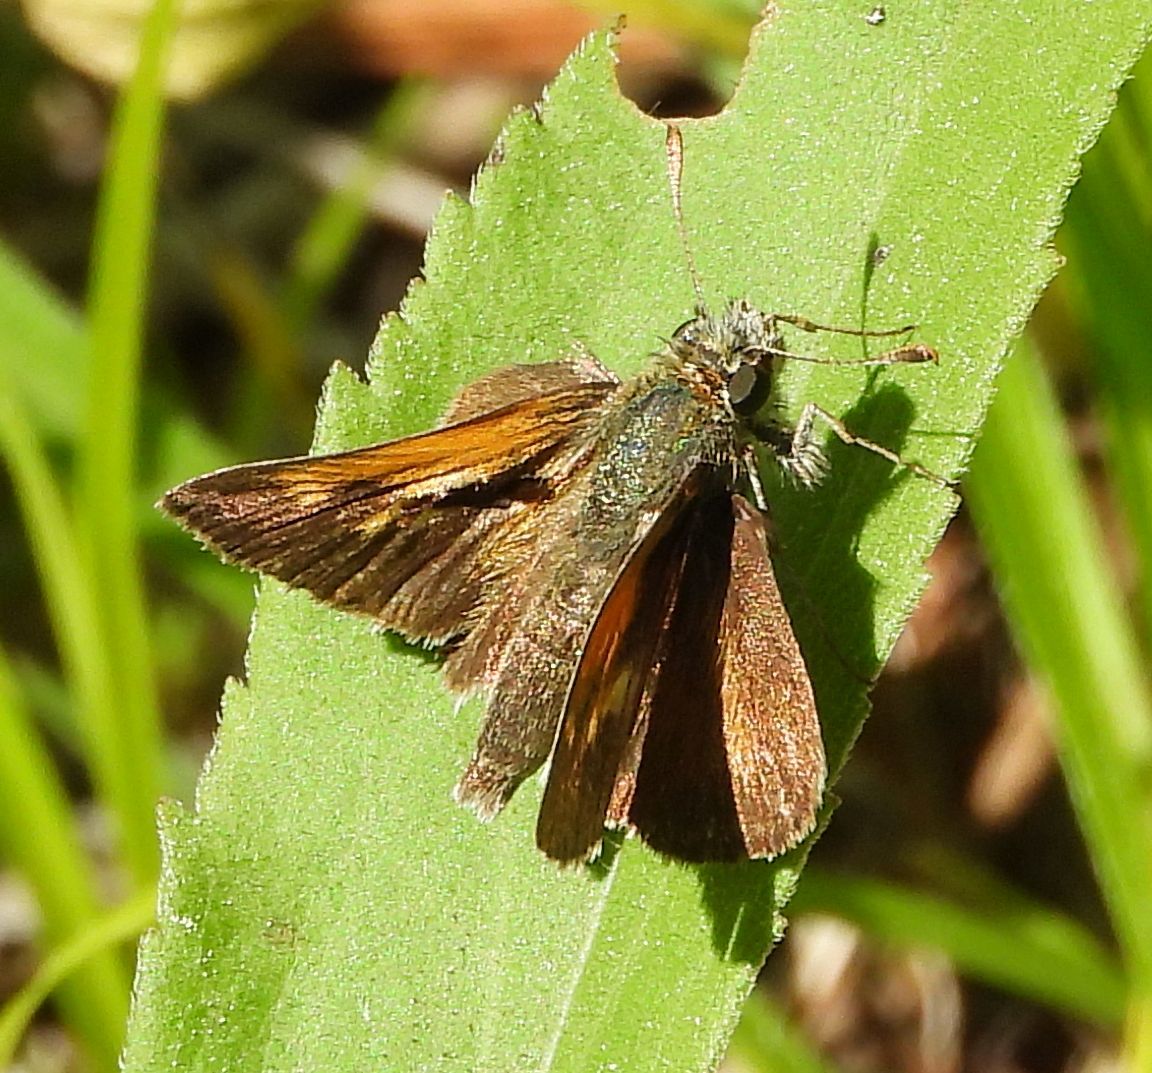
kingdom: Animalia
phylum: Arthropoda
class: Insecta
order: Lepidoptera
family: Hesperiidae
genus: Polites
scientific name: Polites themistocles
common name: Tawny-edged skipper
